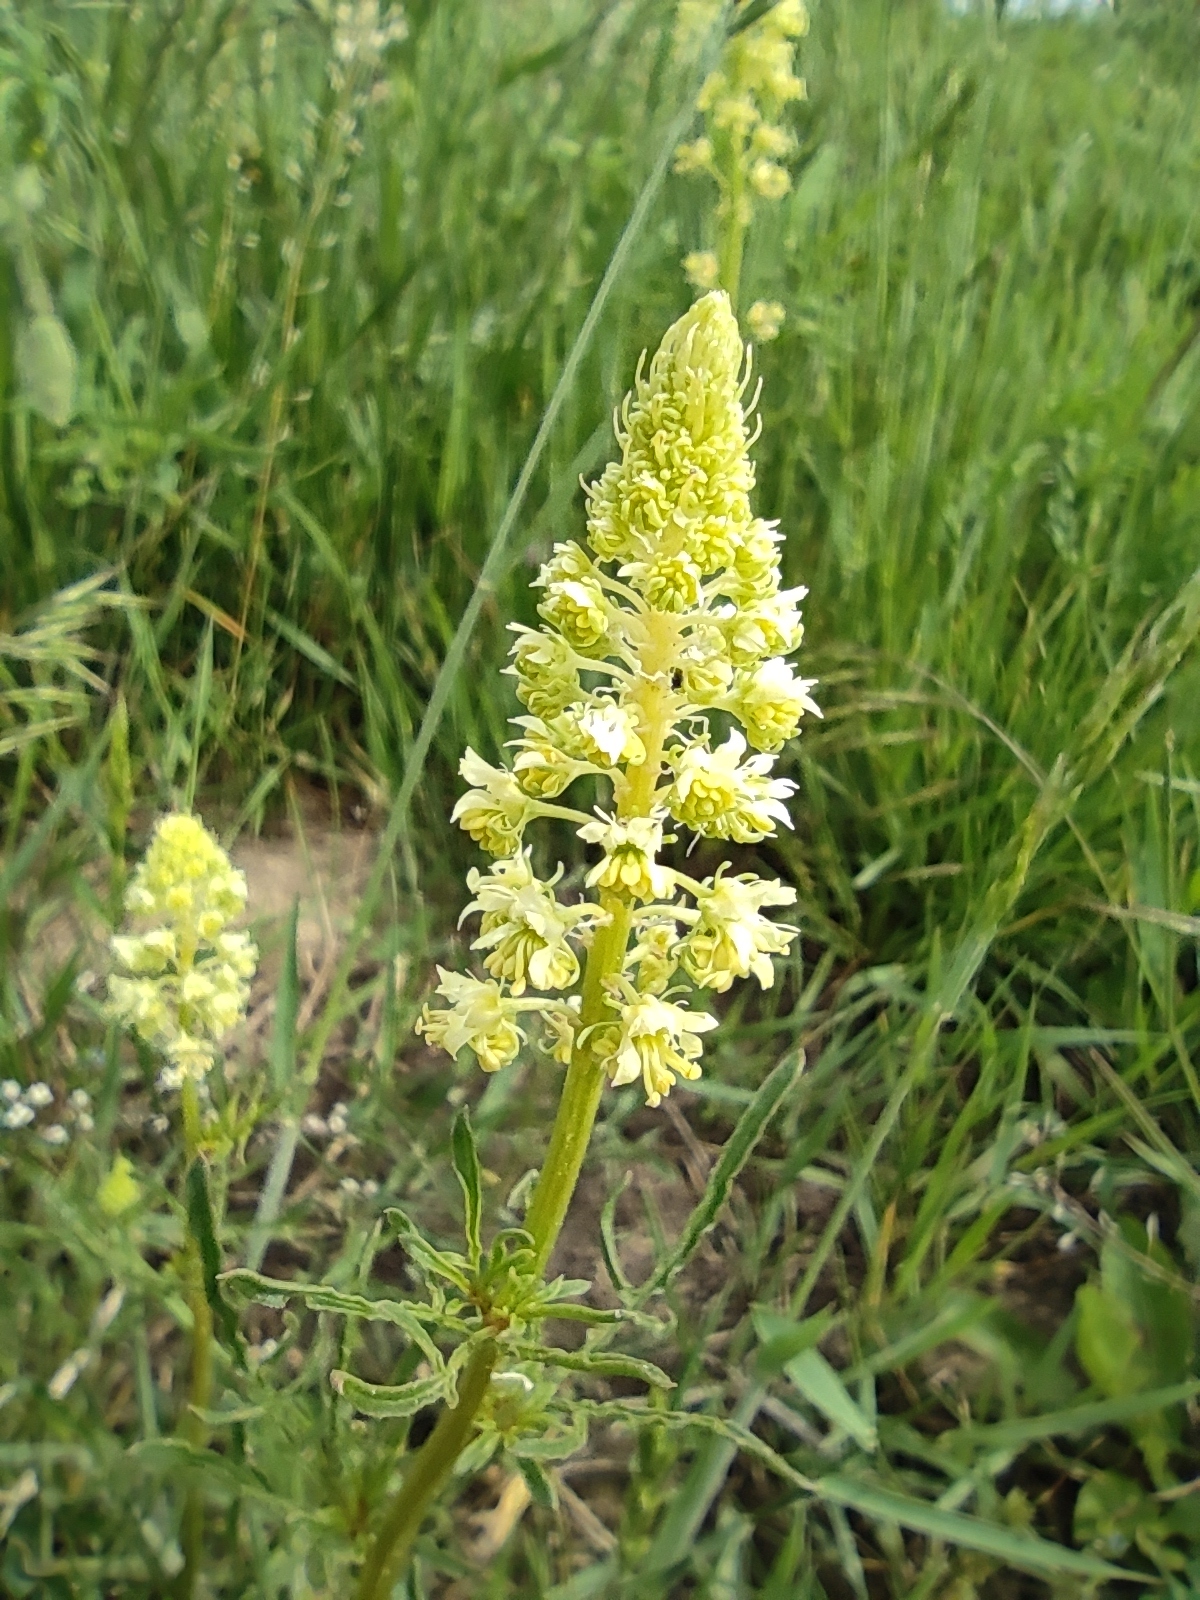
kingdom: Plantae
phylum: Tracheophyta
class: Magnoliopsida
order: Brassicales
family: Resedaceae
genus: Reseda
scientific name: Reseda lutea
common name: Wild mignonette
